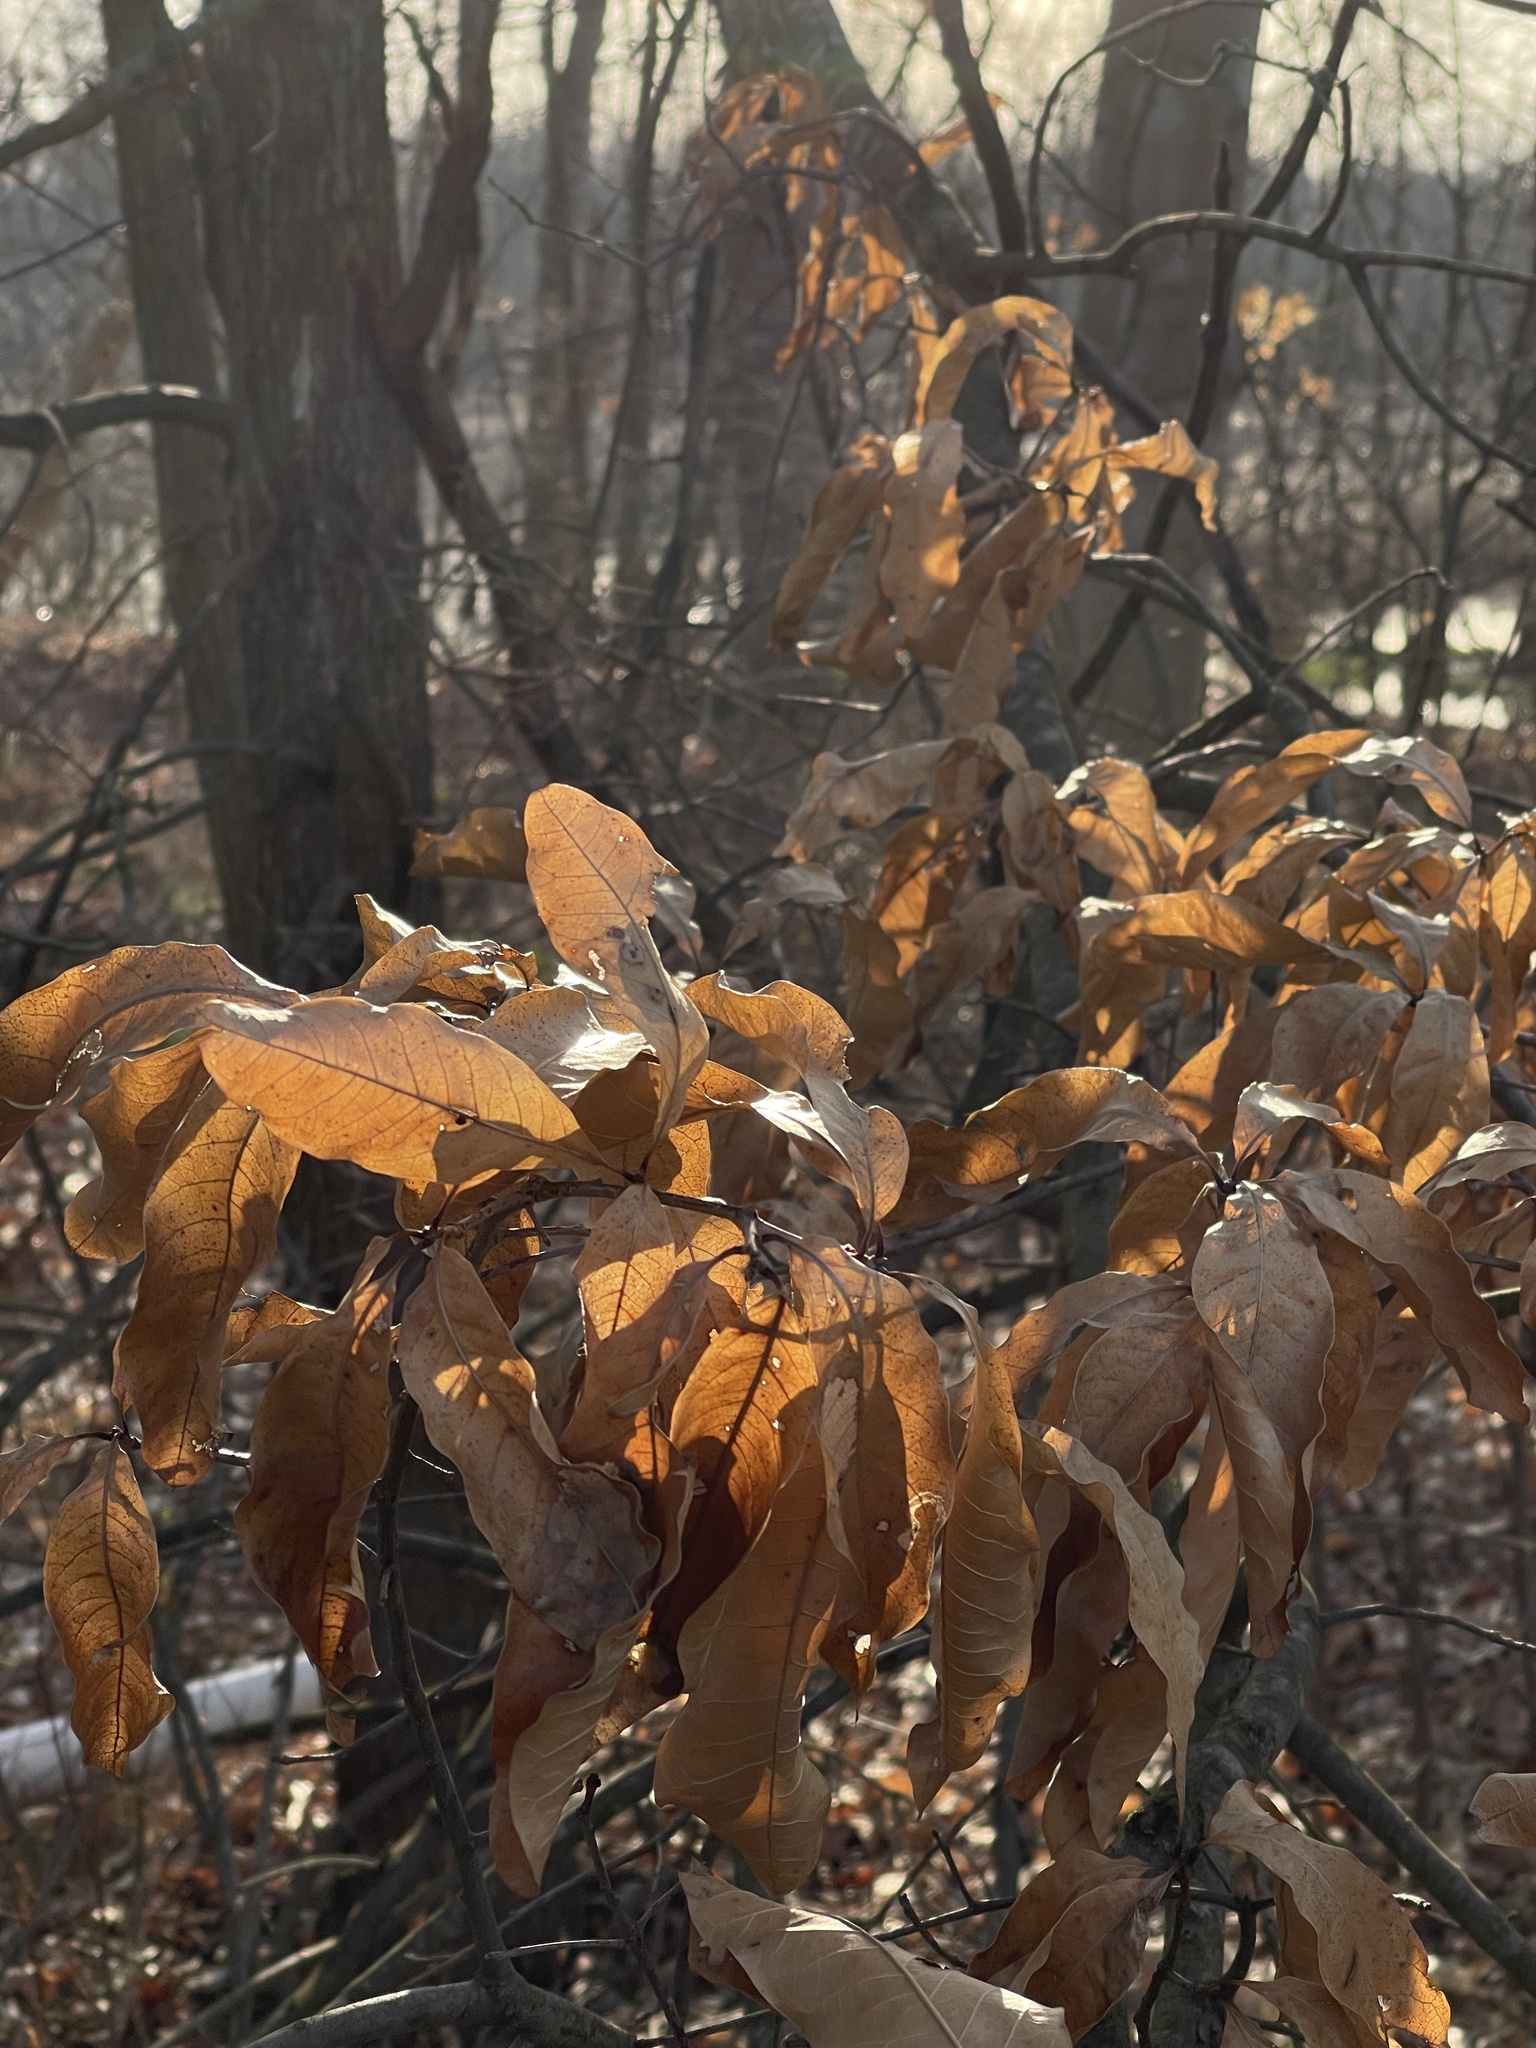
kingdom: Plantae
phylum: Tracheophyta
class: Magnoliopsida
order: Fagales
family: Fagaceae
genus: Quercus
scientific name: Quercus imbricaria
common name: Shingle oak
